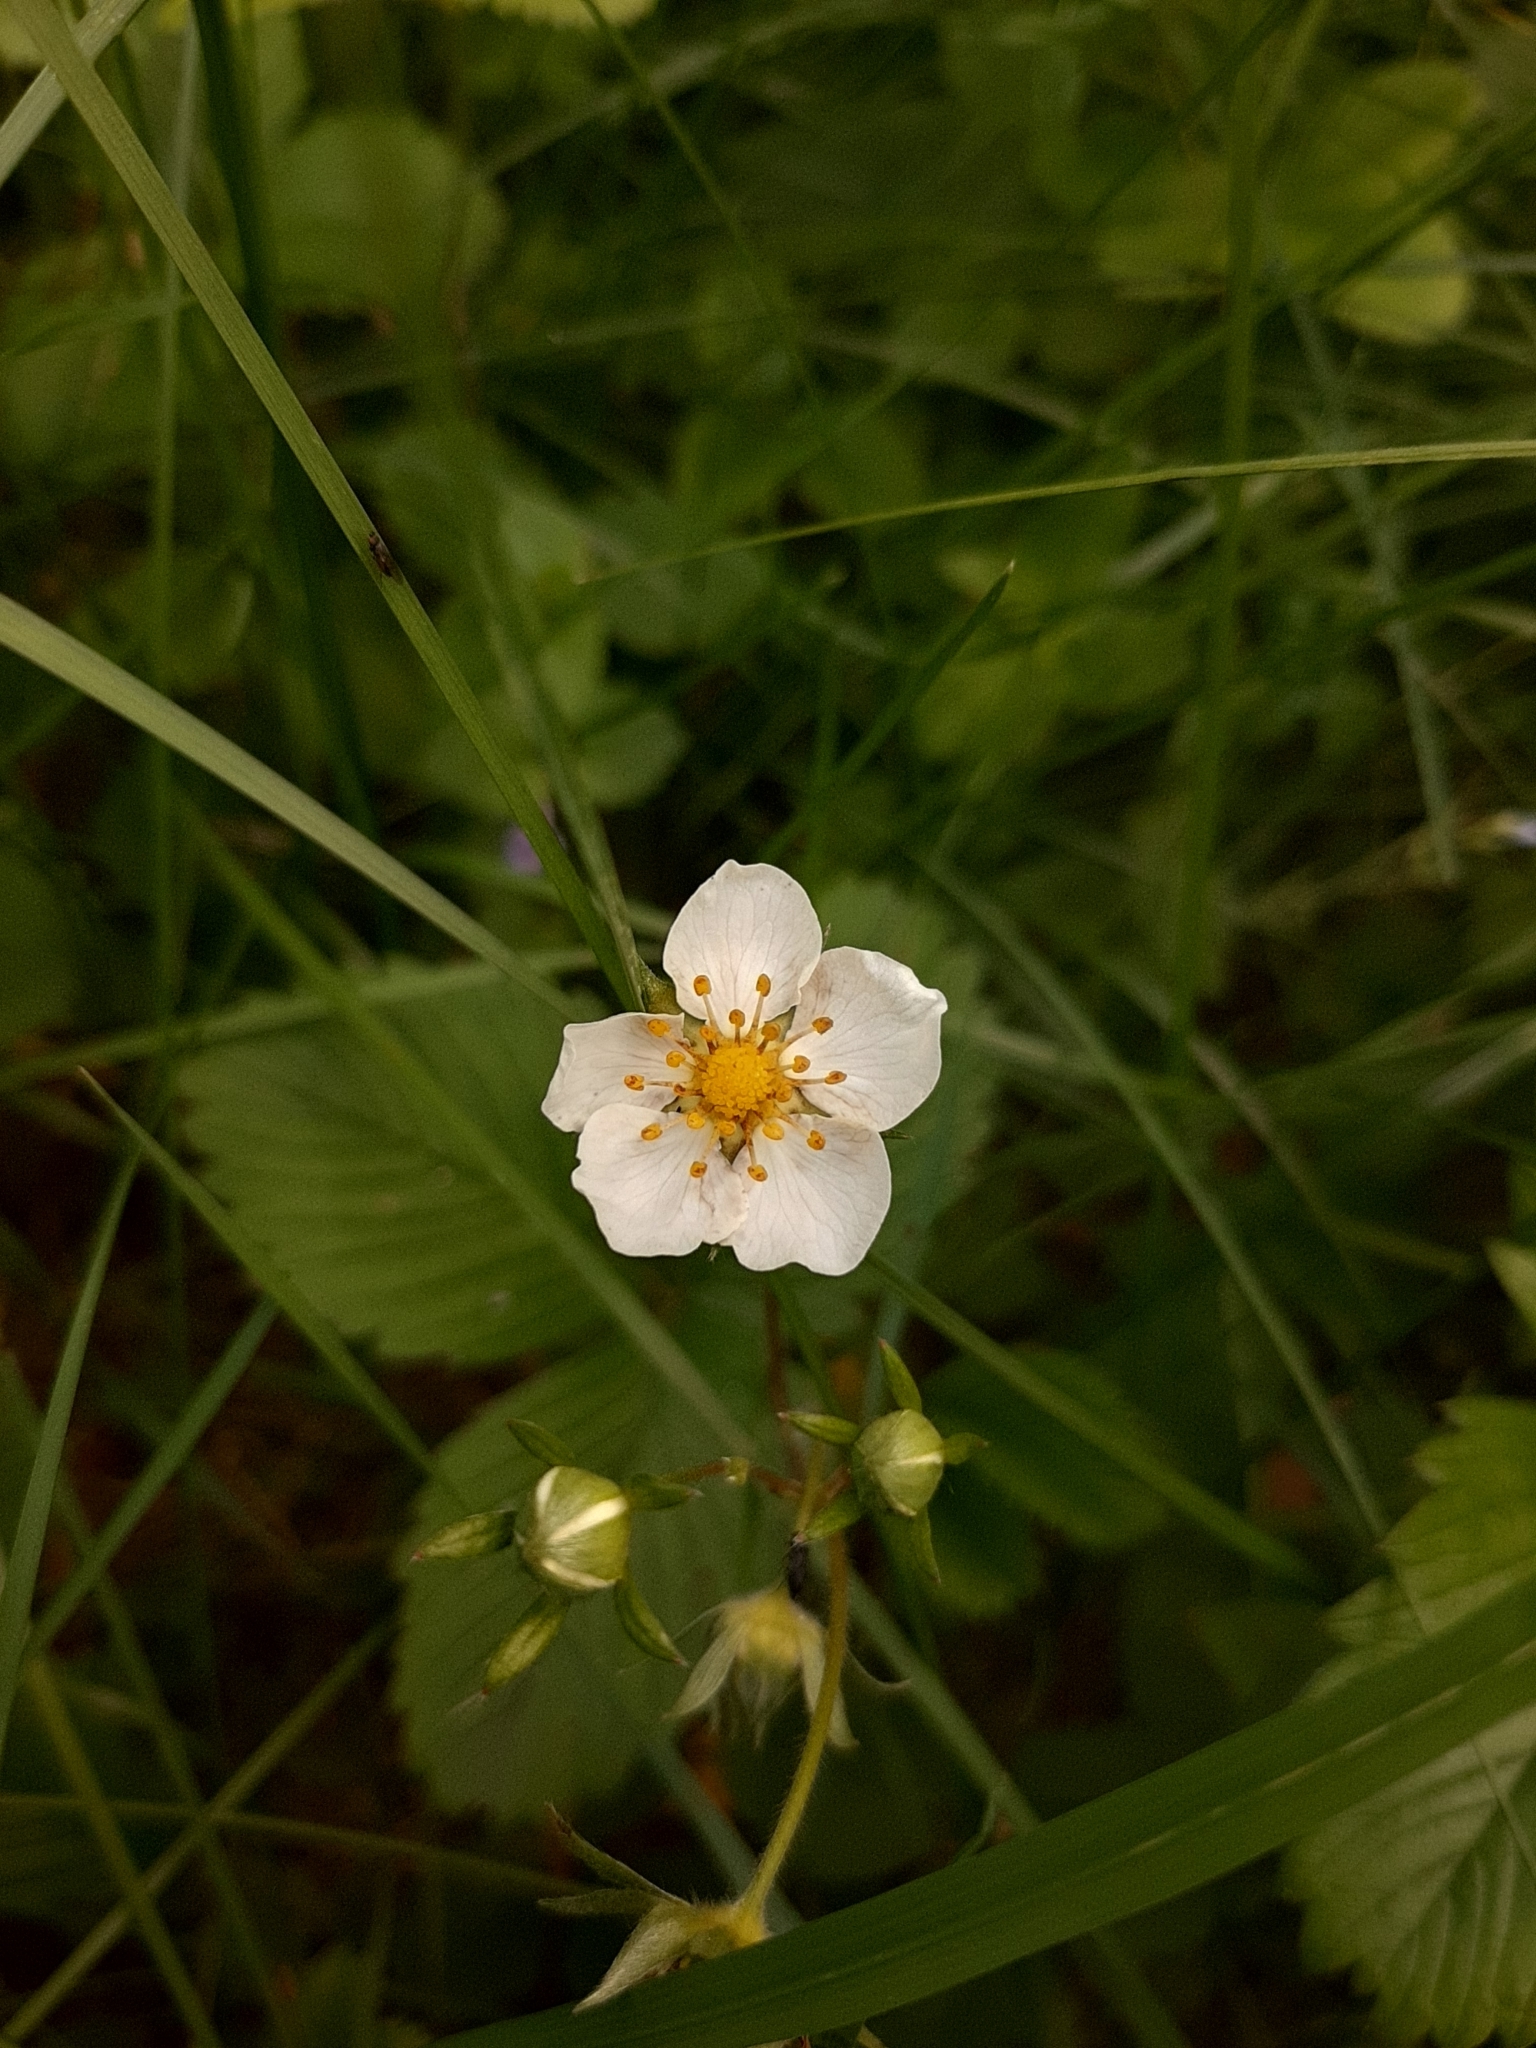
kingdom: Plantae
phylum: Tracheophyta
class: Magnoliopsida
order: Rosales
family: Rosaceae
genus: Fragaria
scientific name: Fragaria viridis
